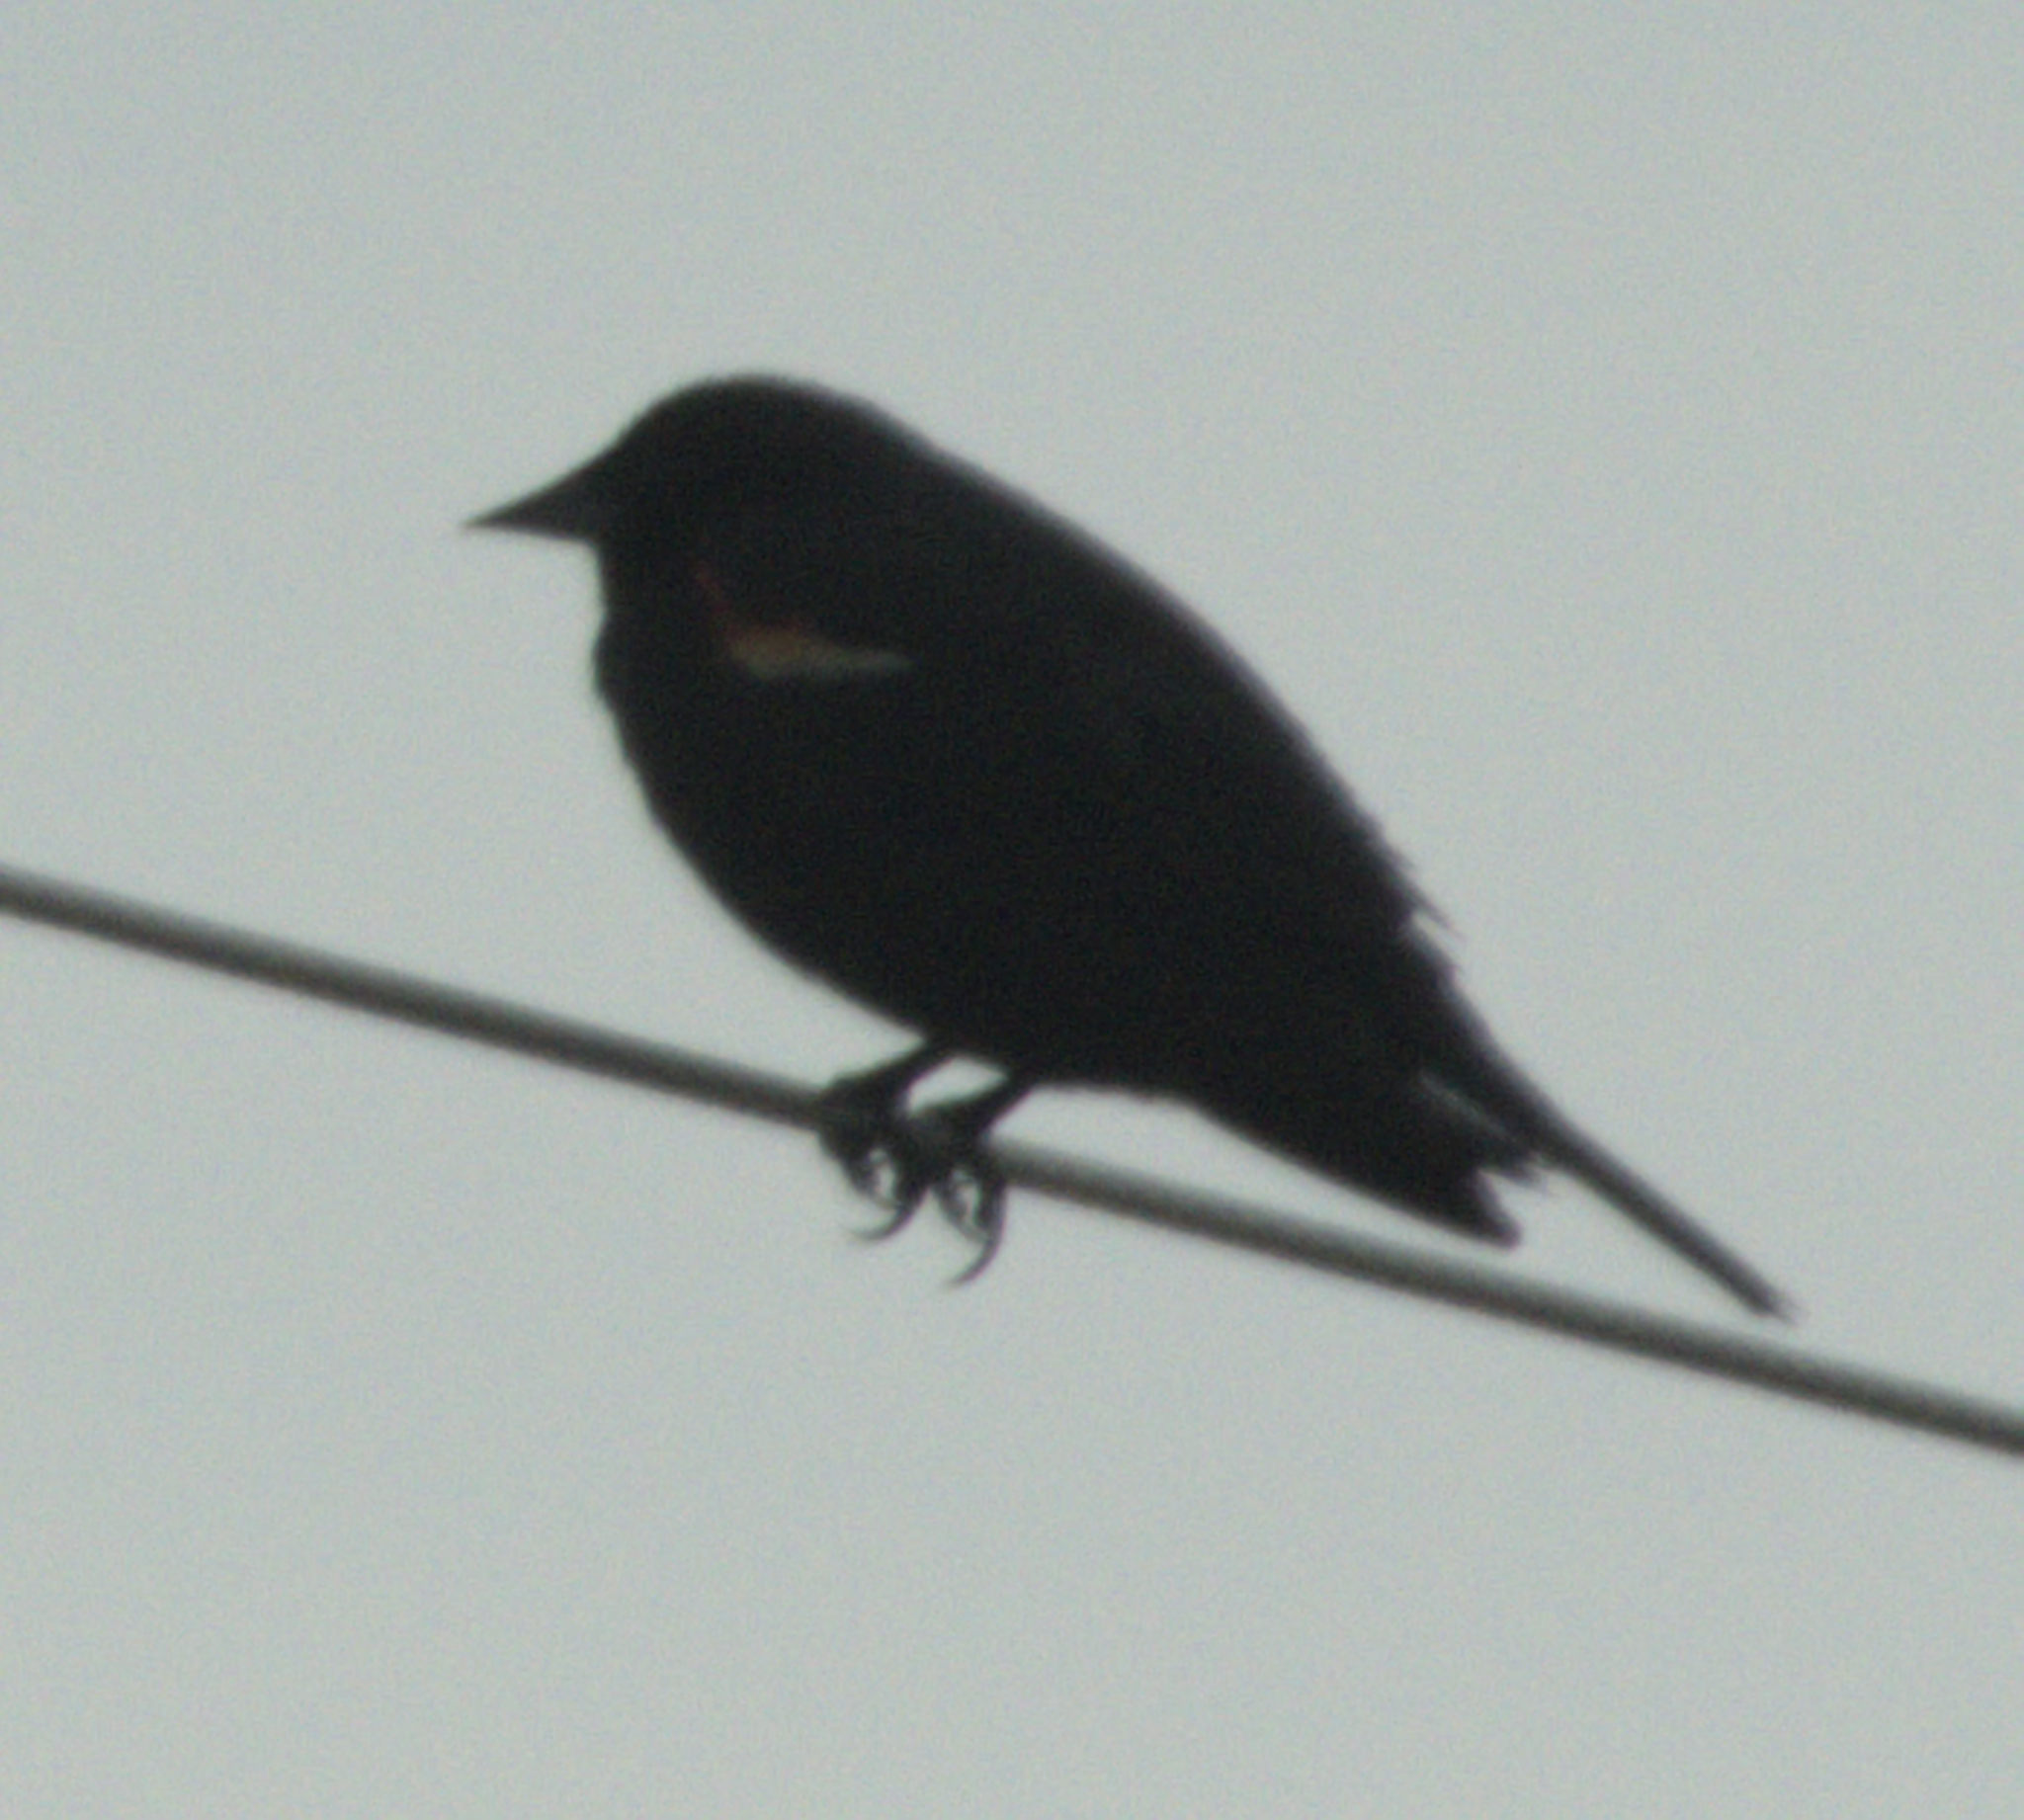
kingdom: Animalia
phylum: Chordata
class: Aves
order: Passeriformes
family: Icteridae
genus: Agelaius
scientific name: Agelaius phoeniceus
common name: Red-winged blackbird
